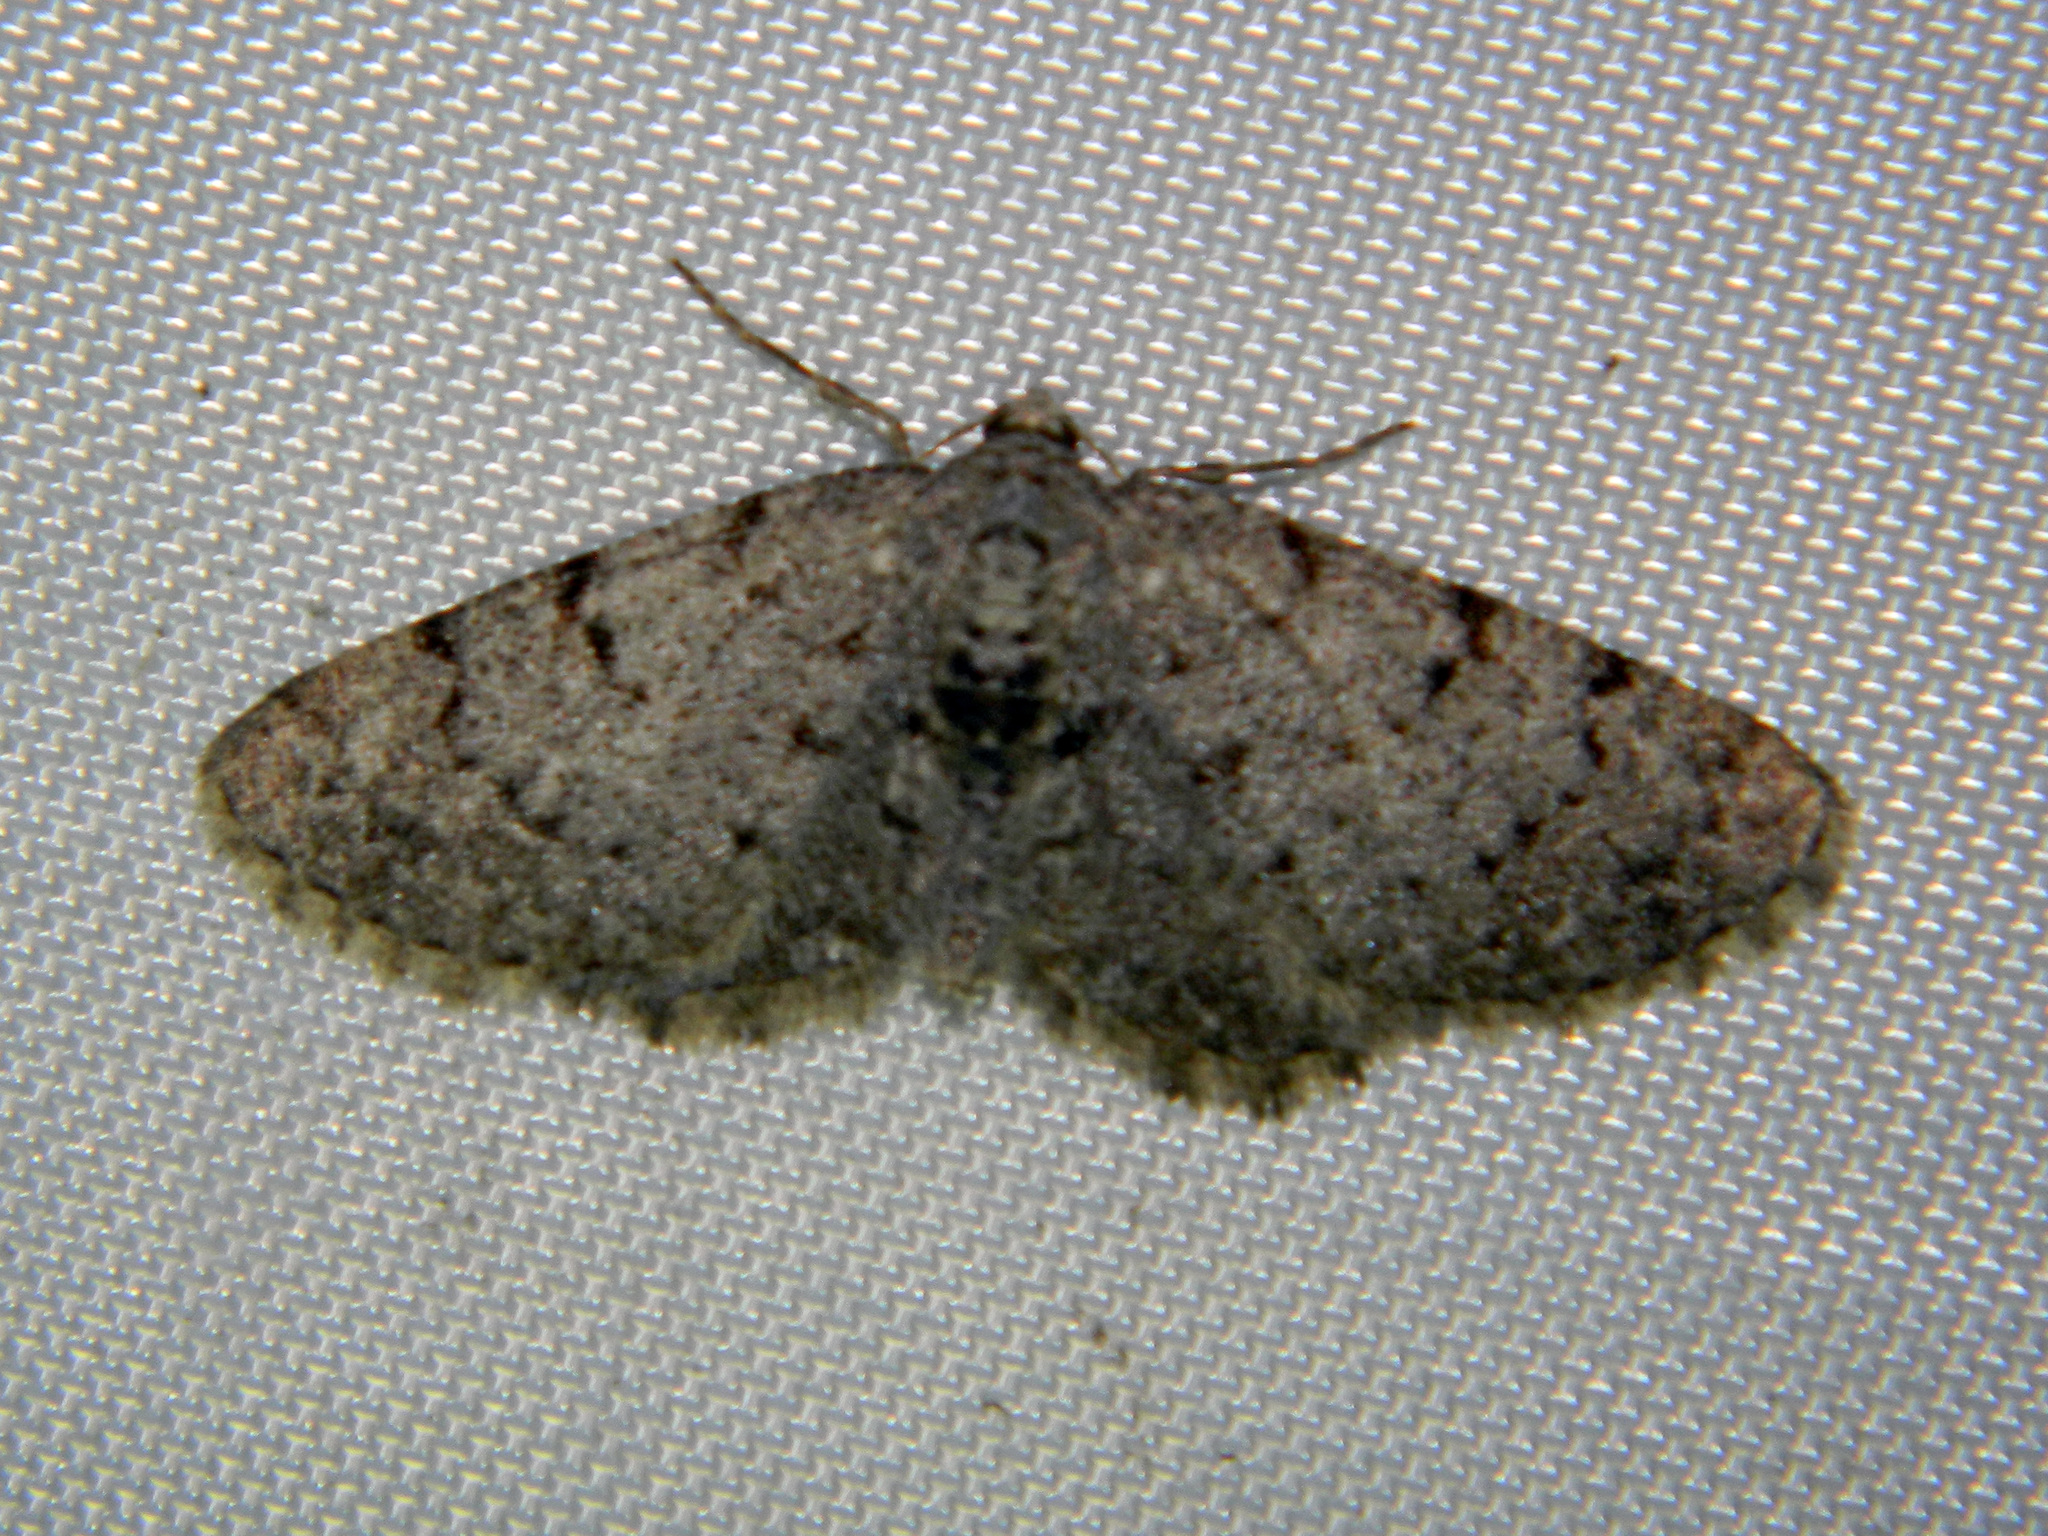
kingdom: Animalia
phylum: Arthropoda
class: Insecta
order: Lepidoptera
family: Geometridae
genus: Aethalura
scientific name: Aethalura intertexta
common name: Four-barred gray
